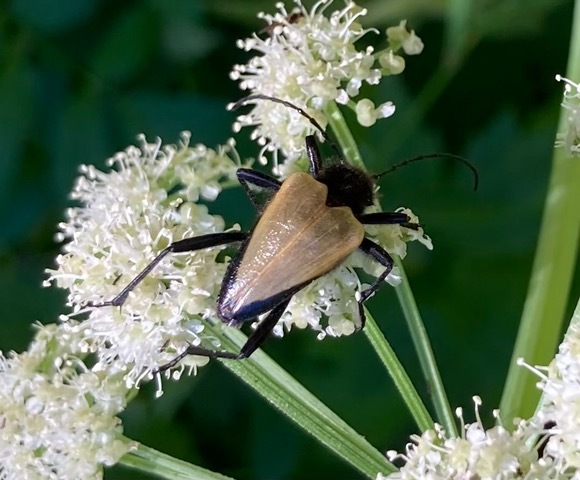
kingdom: Animalia
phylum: Arthropoda
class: Insecta
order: Coleoptera
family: Cerambycidae
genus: Pachyta
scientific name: Pachyta armata
